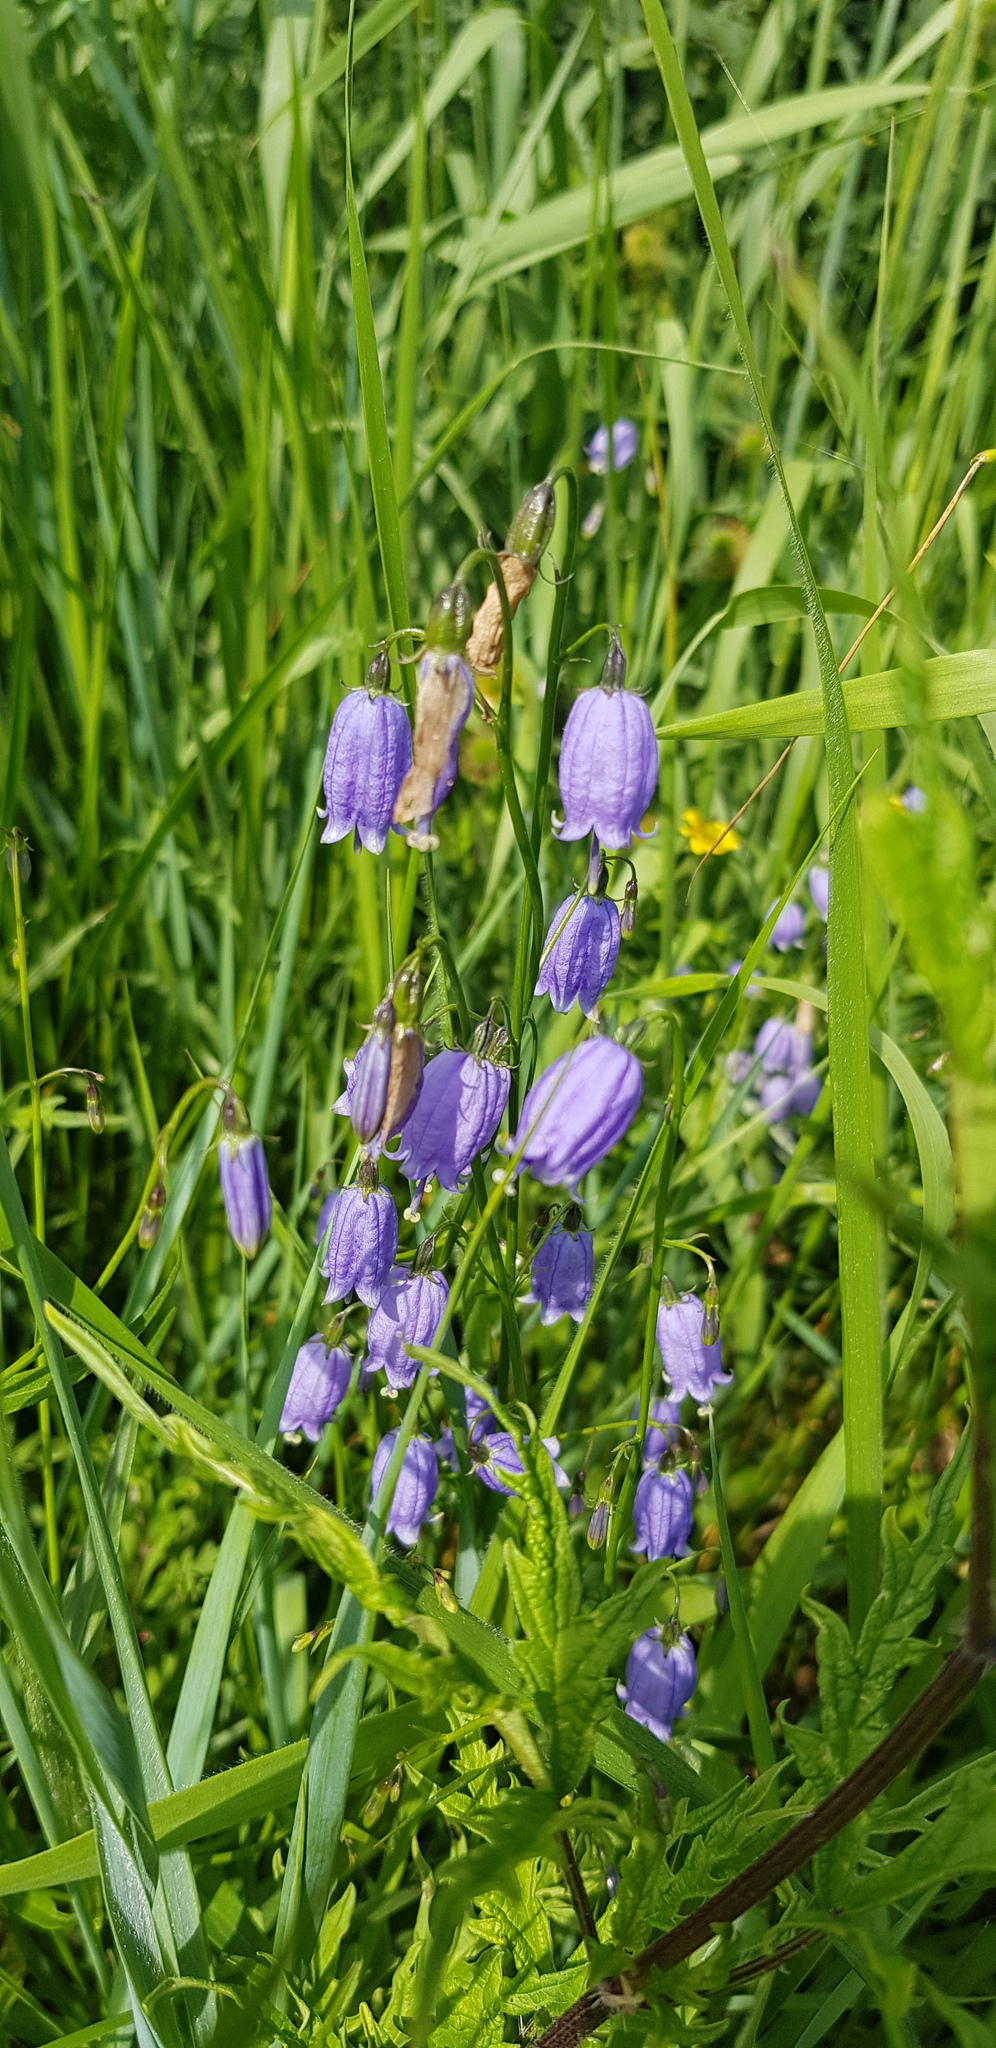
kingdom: Plantae
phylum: Tracheophyta
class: Magnoliopsida
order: Asterales
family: Campanulaceae
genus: Adenophora
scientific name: Adenophora stenanthina
